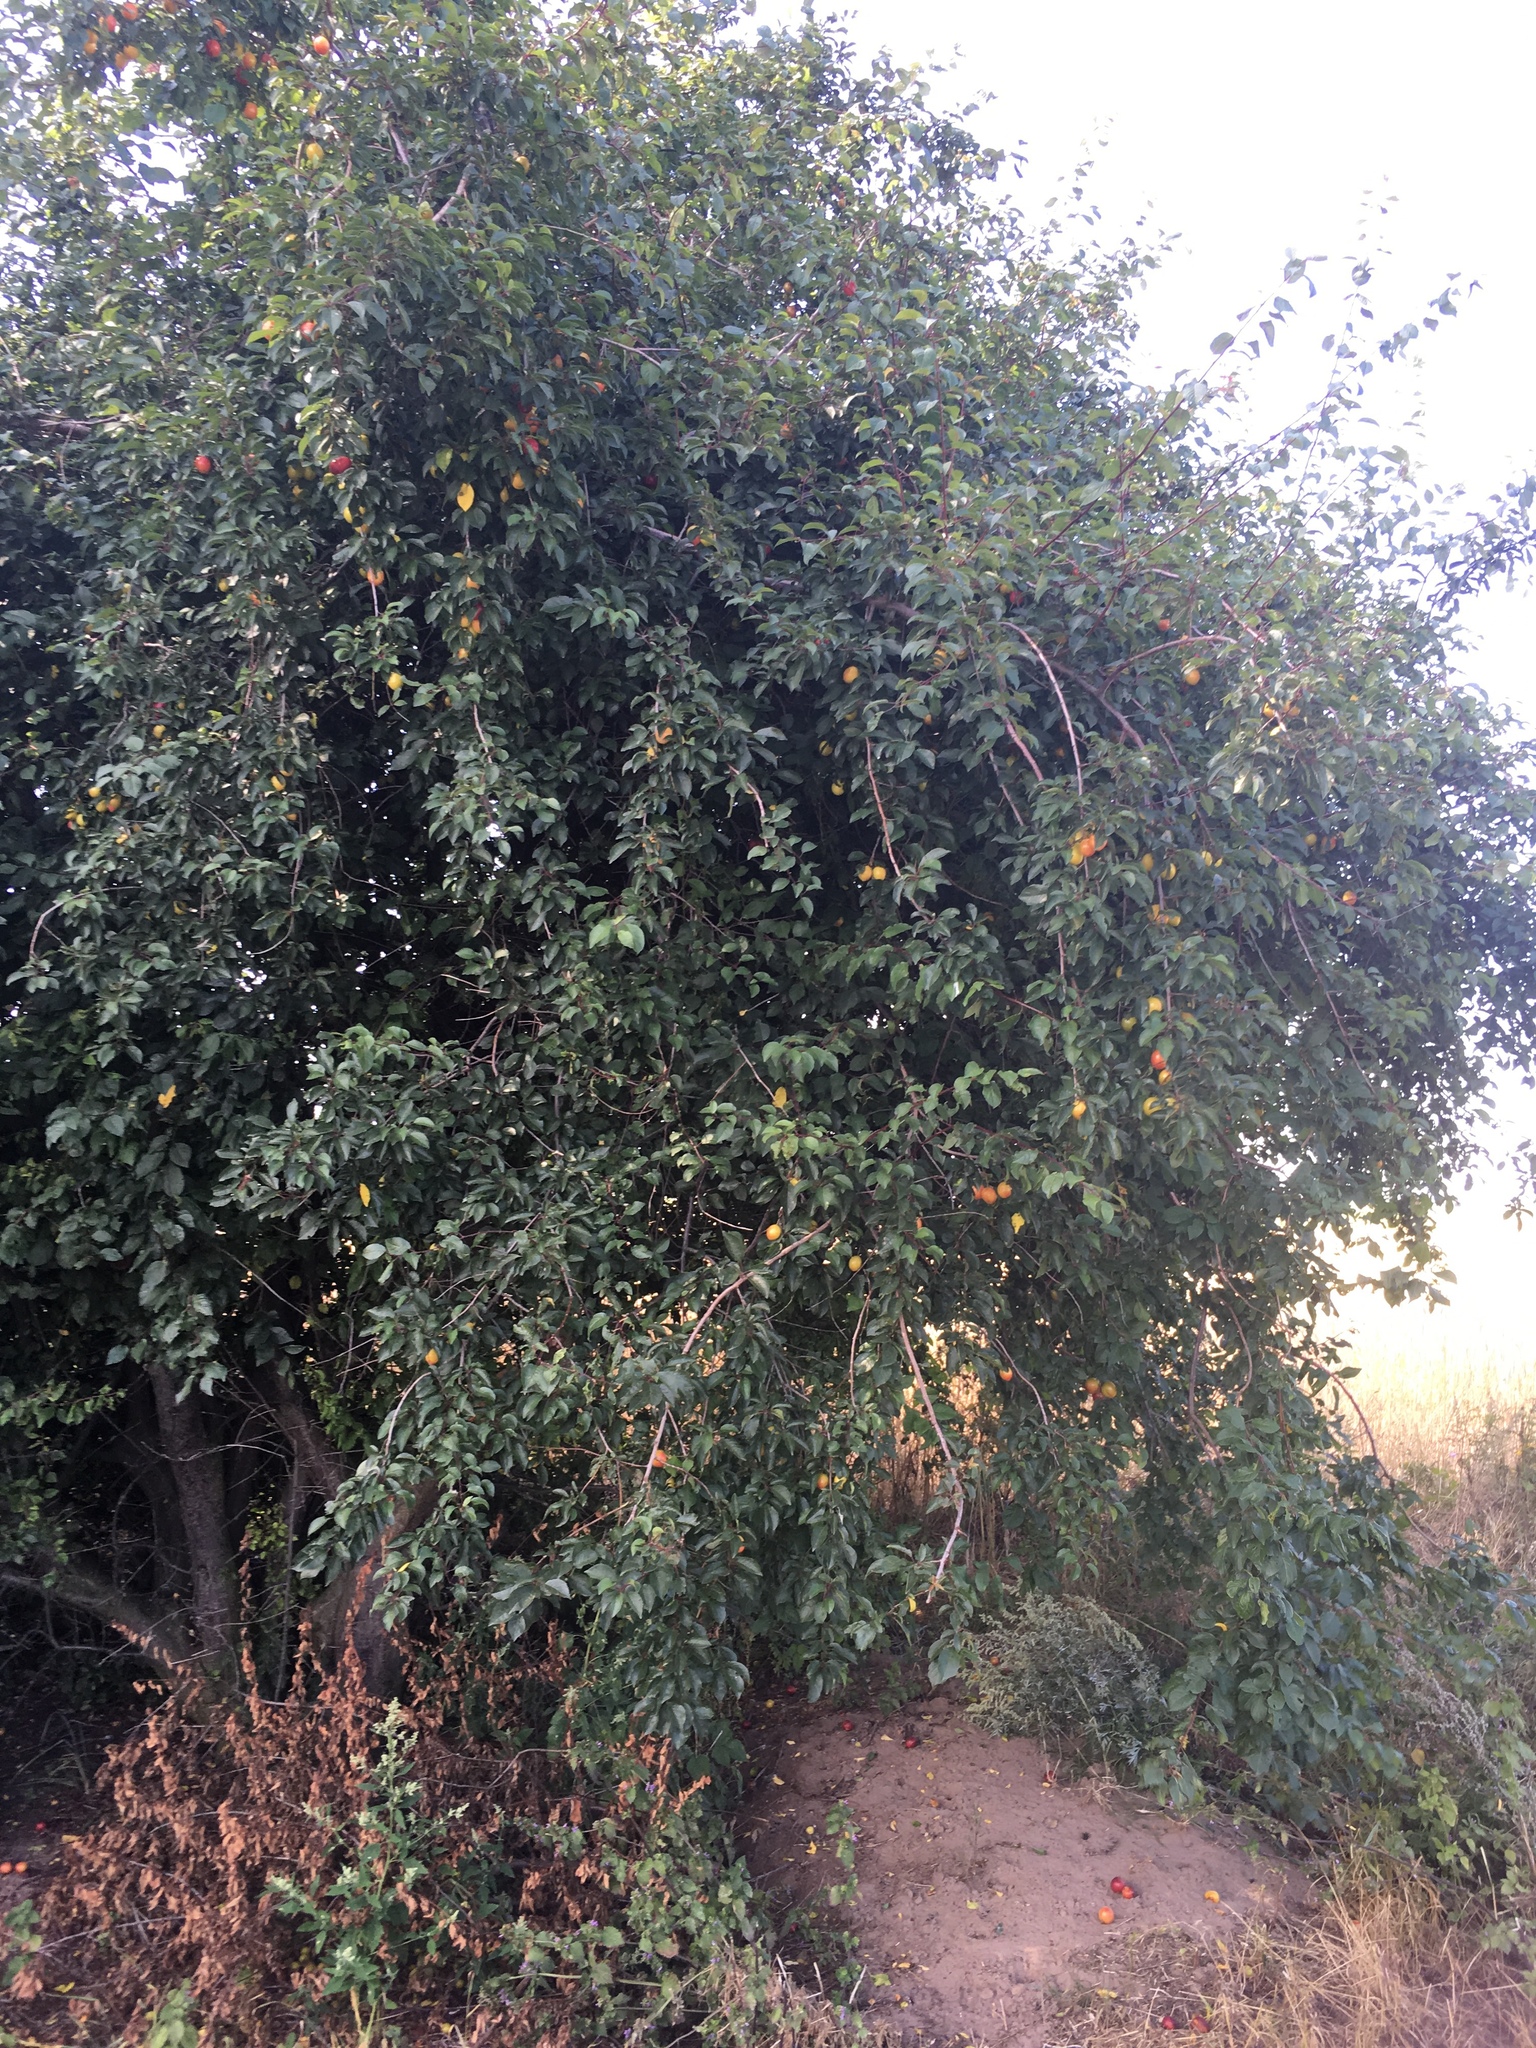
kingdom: Plantae
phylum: Tracheophyta
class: Magnoliopsida
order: Rosales
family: Rosaceae
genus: Prunus
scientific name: Prunus cerasifera
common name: Cherry plum
